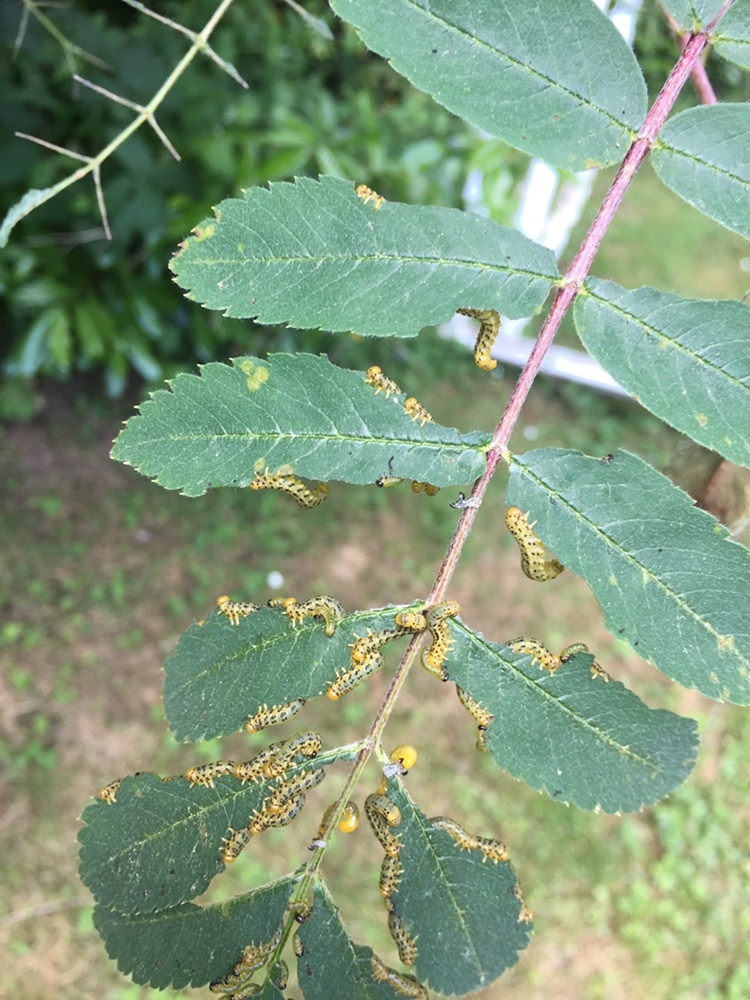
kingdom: Animalia
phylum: Arthropoda
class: Insecta
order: Hymenoptera
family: Tenthredinidae
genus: Pristiphora
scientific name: Pristiphora geniculata
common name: Mountain-ash sawfly
